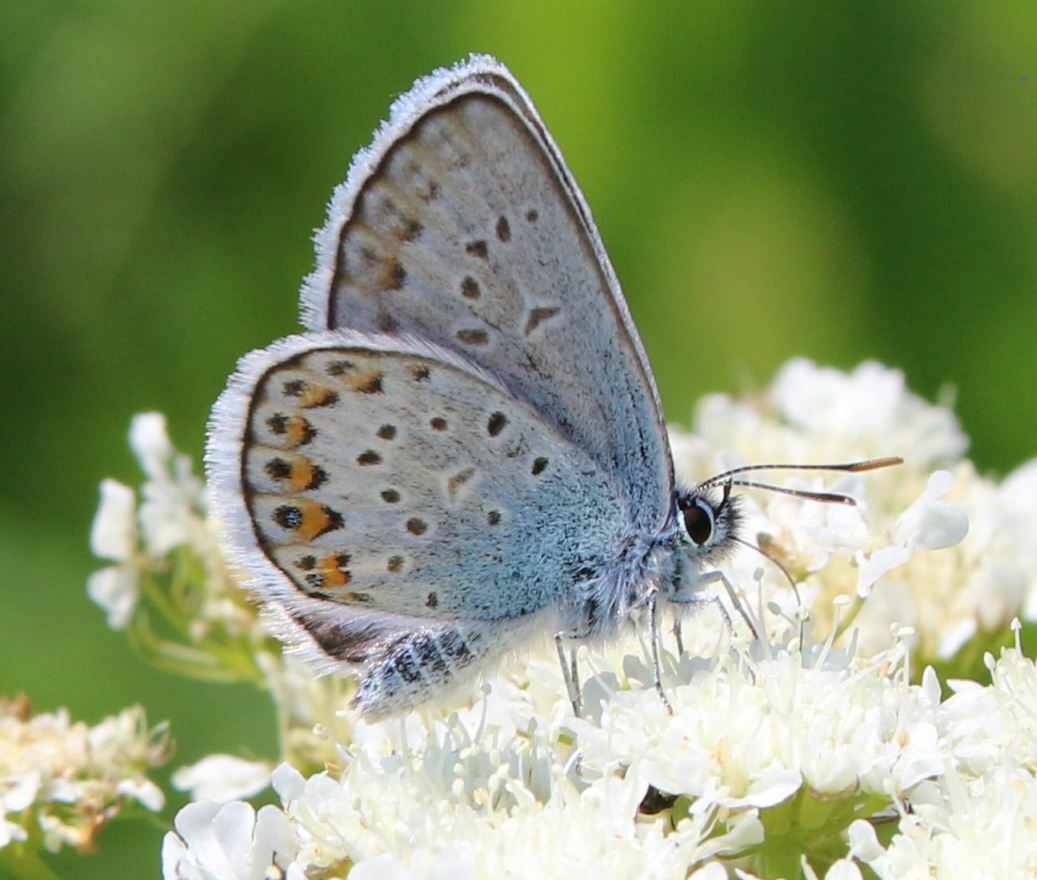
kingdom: Animalia
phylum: Arthropoda
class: Insecta
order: Lepidoptera
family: Lycaenidae
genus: Plebejus
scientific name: Plebejus argus
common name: Silver-studded blue
